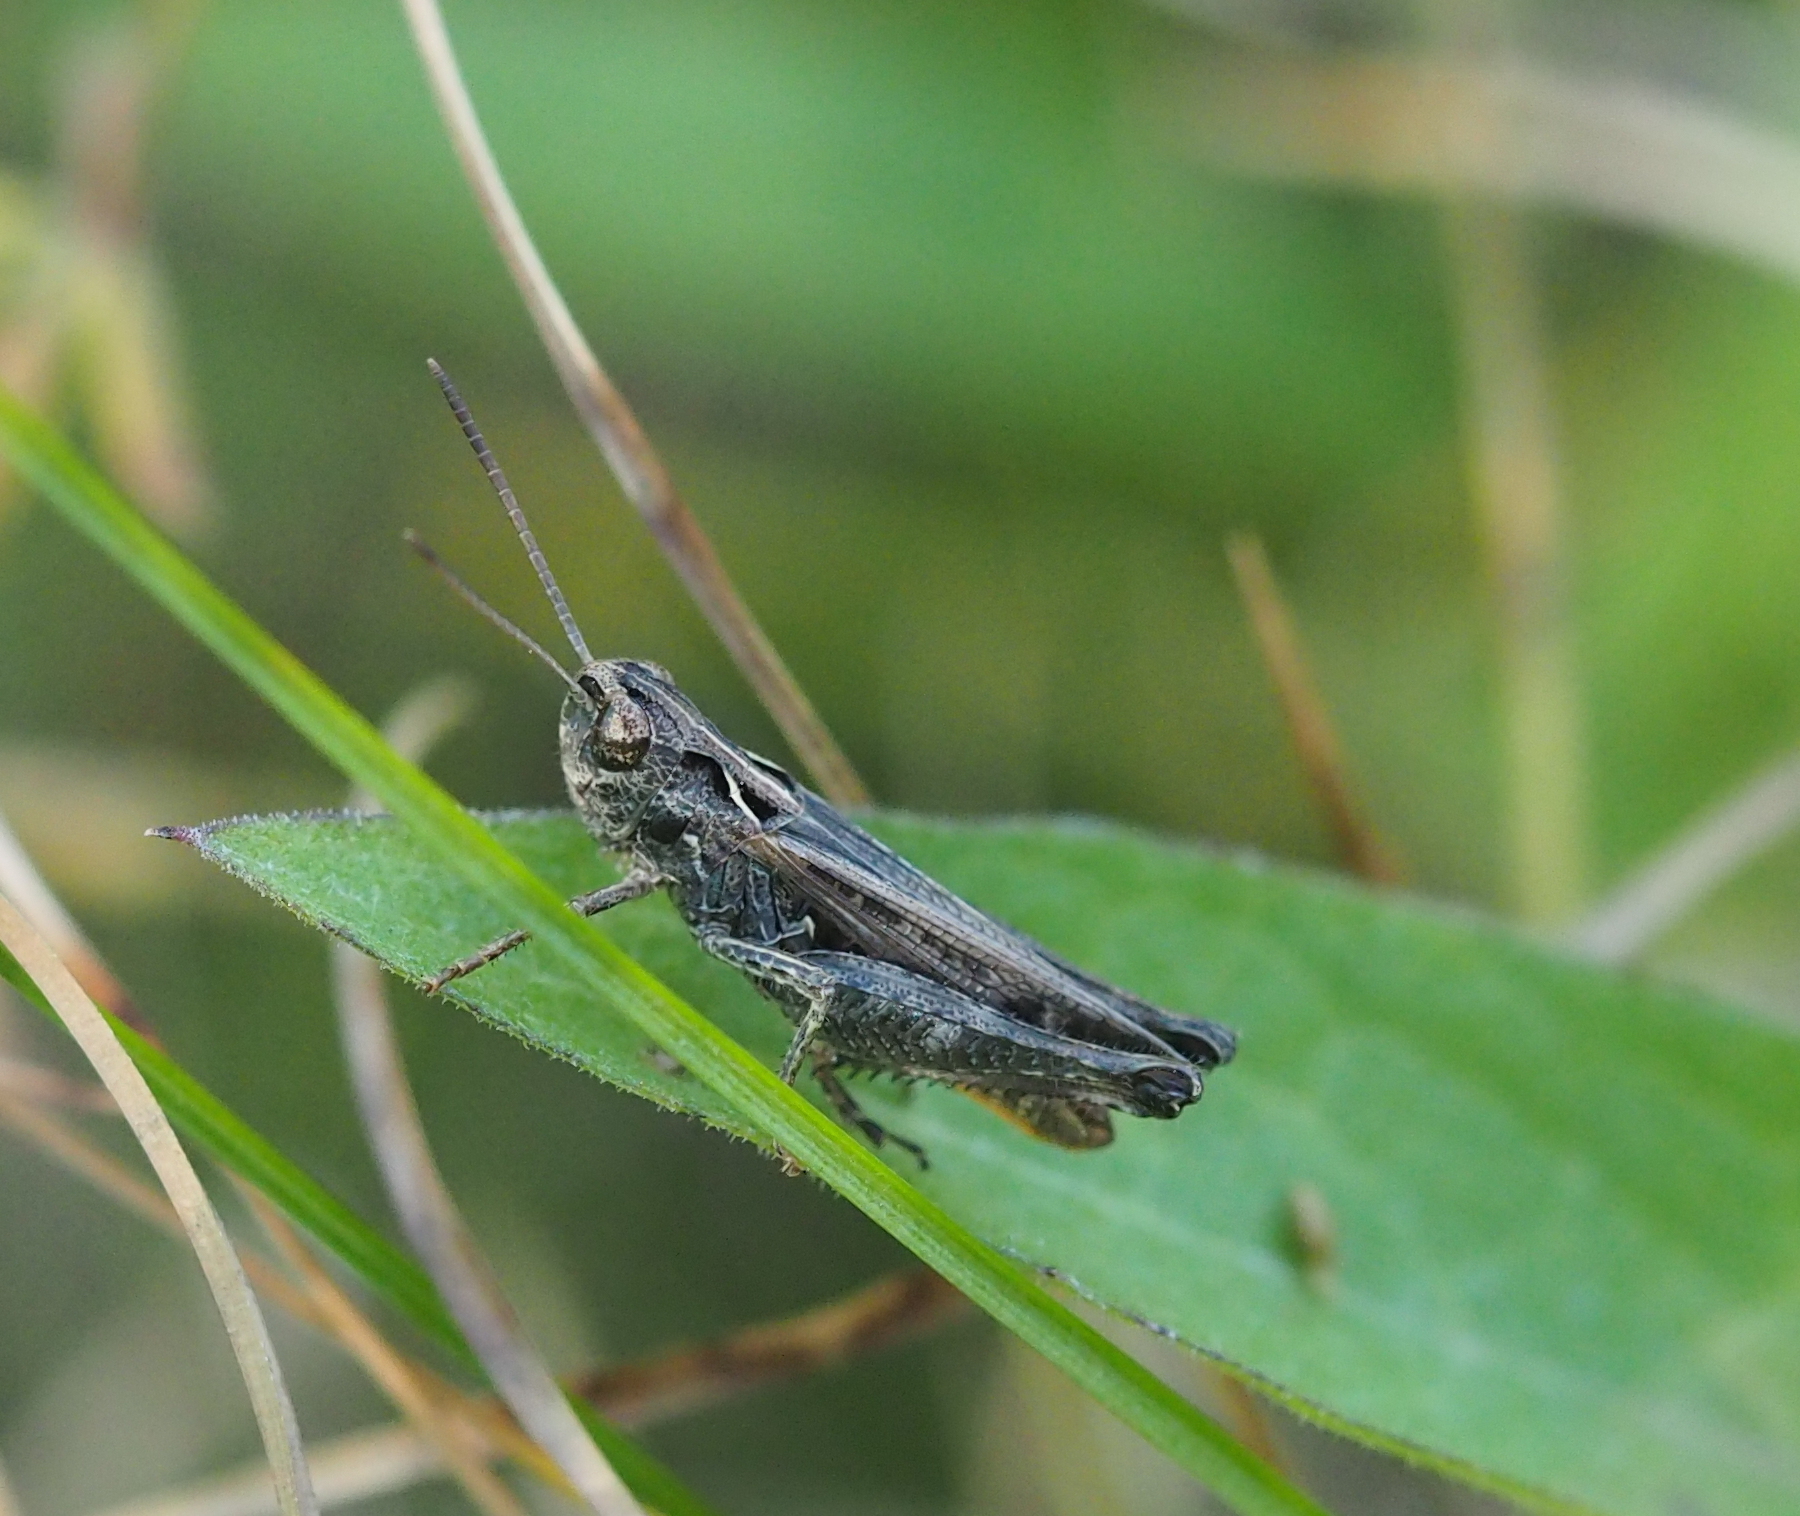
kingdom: Animalia
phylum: Arthropoda
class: Insecta
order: Orthoptera
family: Acrididae
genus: Omocestus
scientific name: Omocestus haemorrhoidalis
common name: Orange-tipped grasshopper
